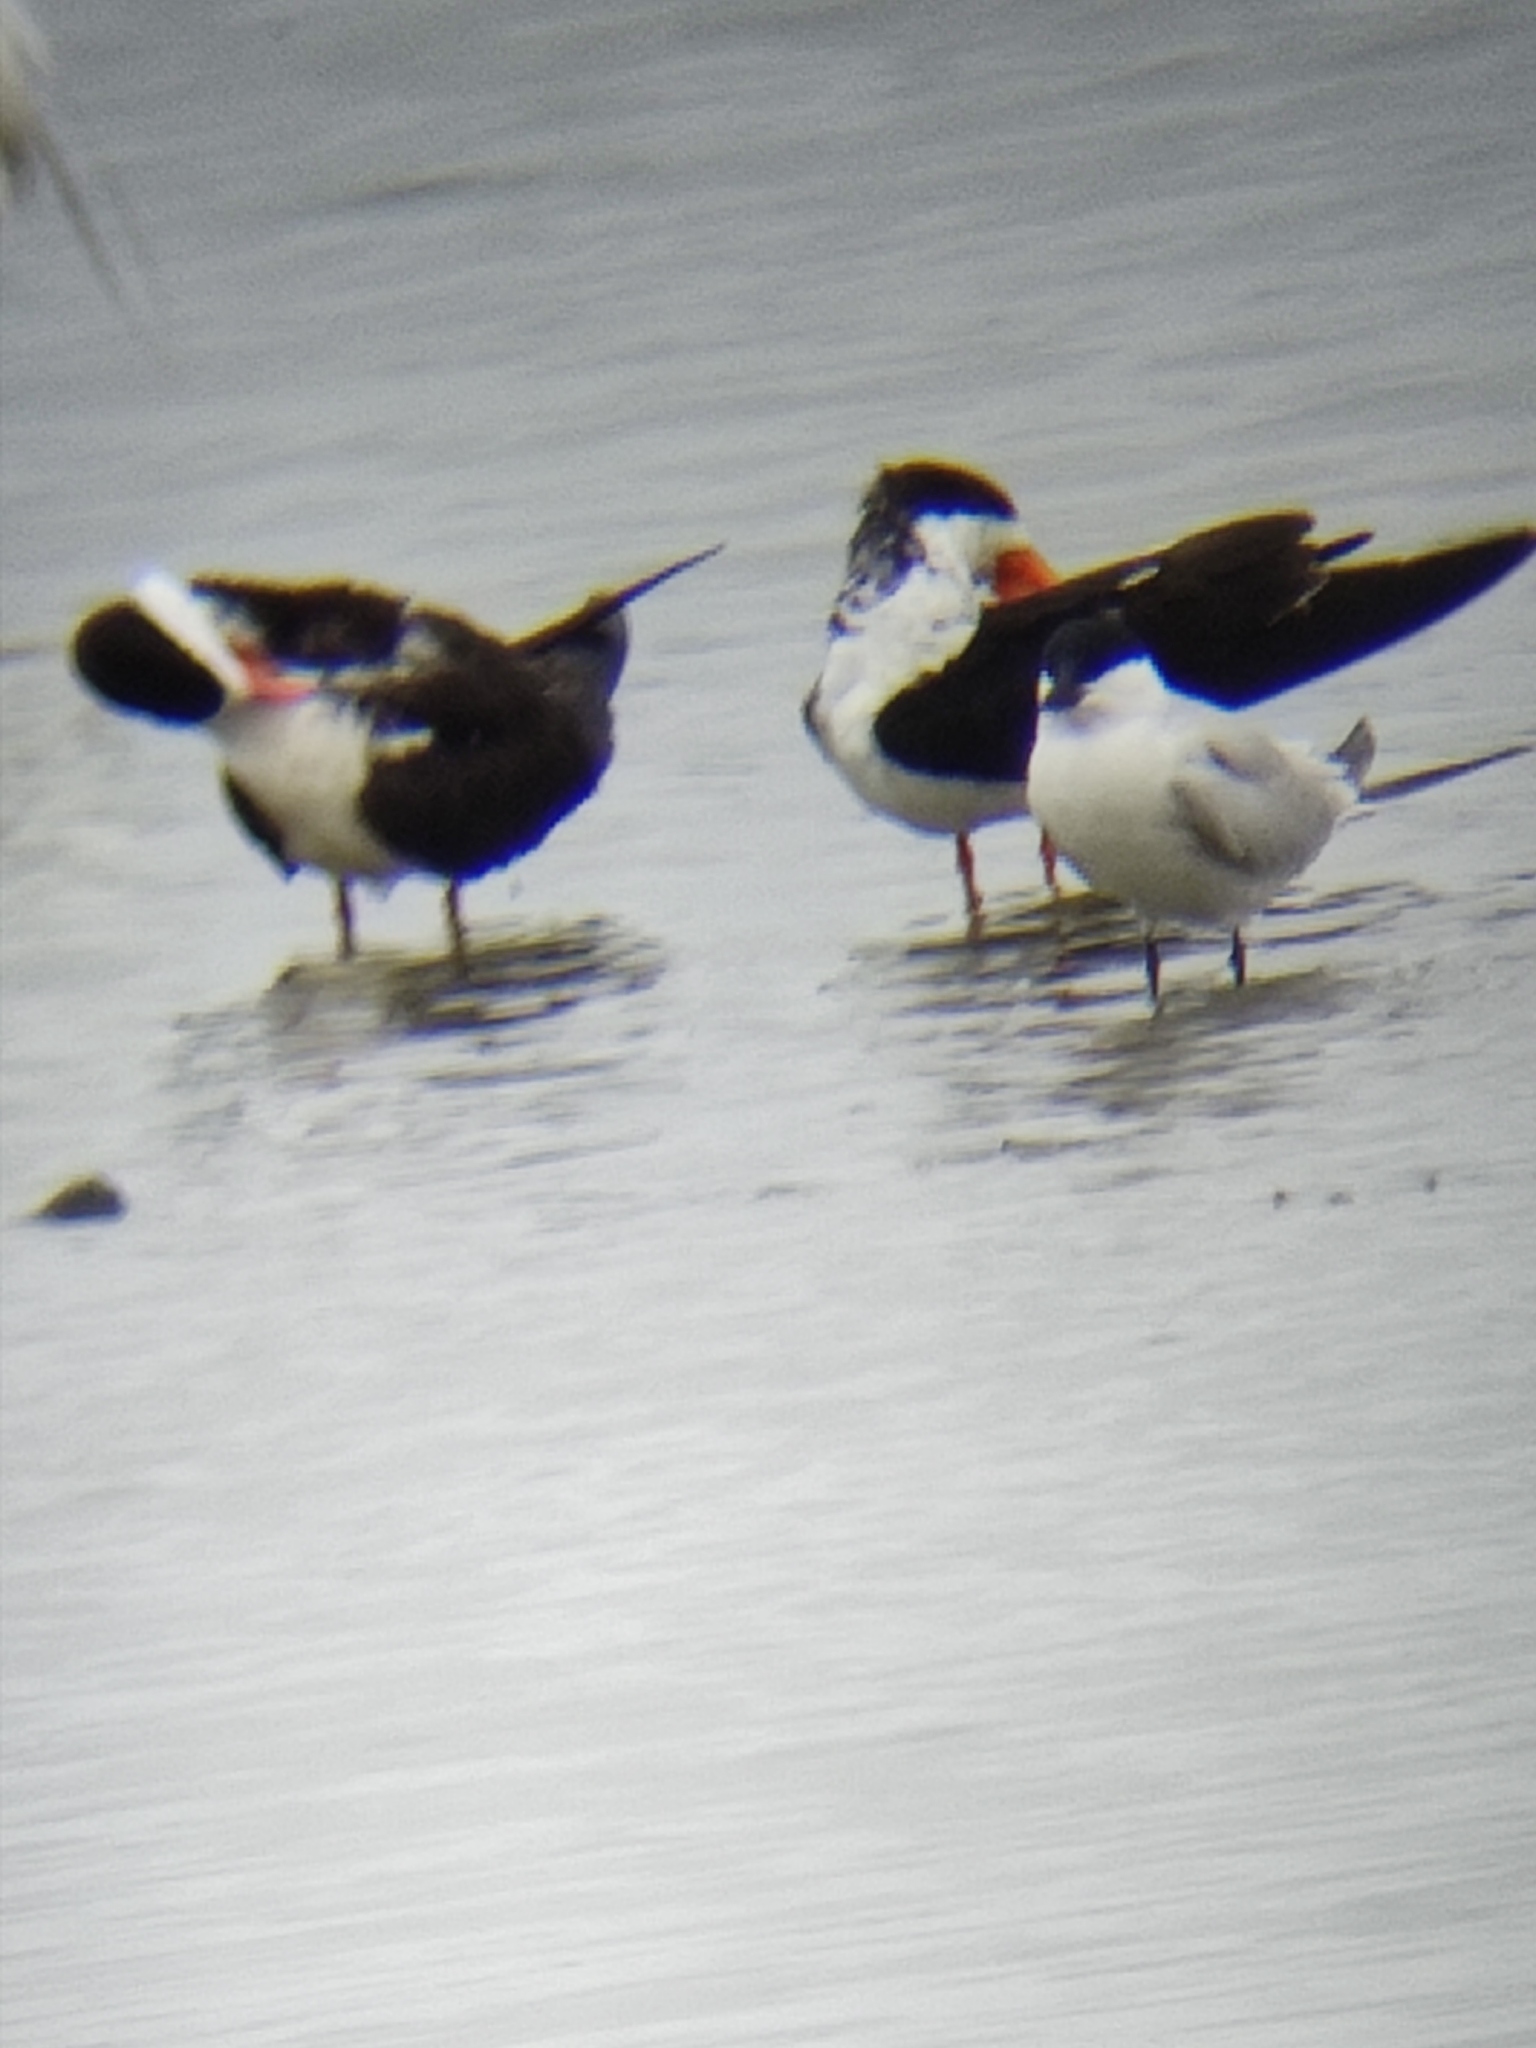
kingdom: Animalia
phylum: Chordata
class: Aves
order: Charadriiformes
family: Laridae
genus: Gelochelidon
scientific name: Gelochelidon nilotica
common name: Gull-billed tern
